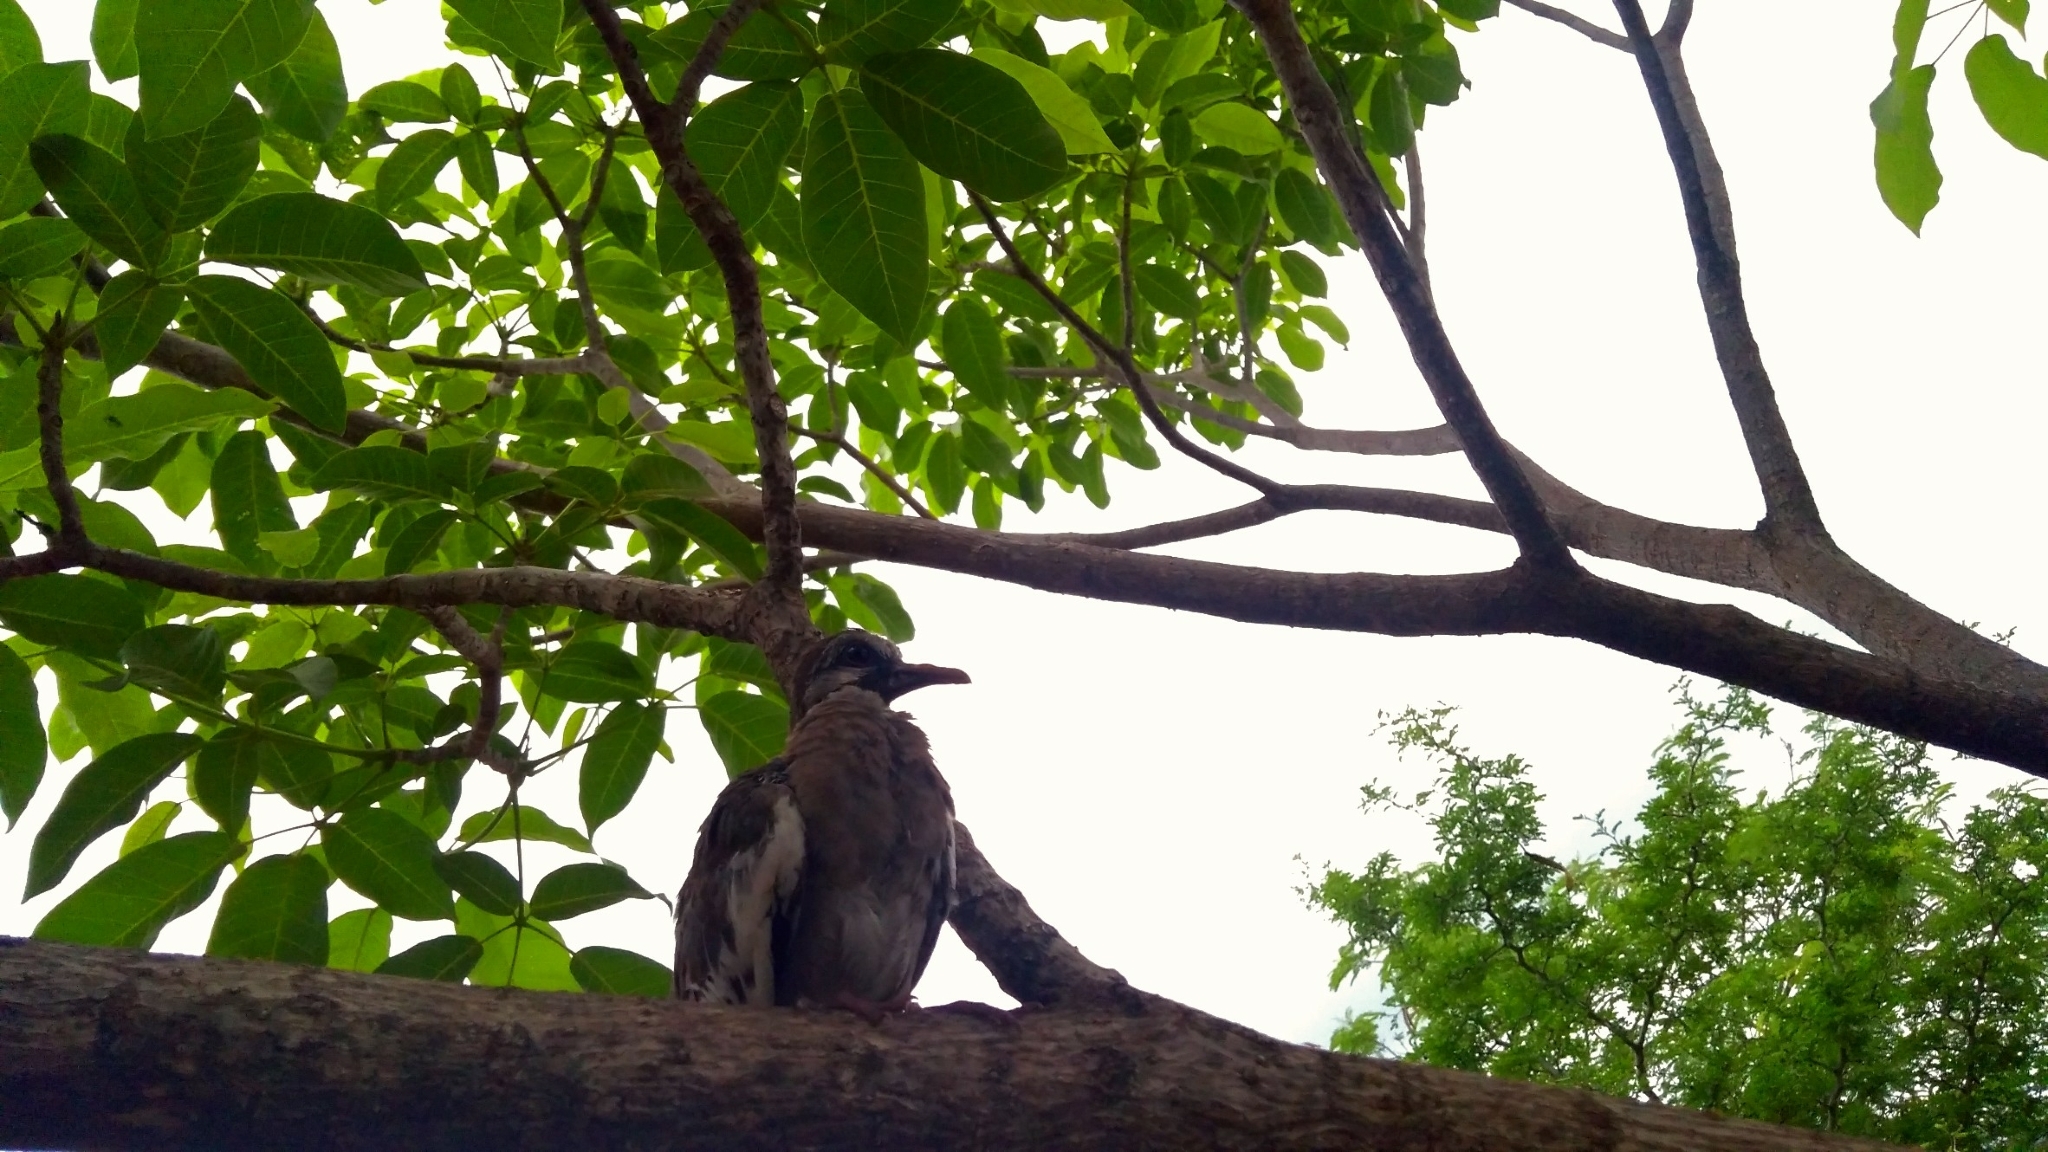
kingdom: Animalia
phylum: Chordata
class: Aves
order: Columbiformes
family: Columbidae
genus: Zenaida
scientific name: Zenaida asiatica
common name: White-winged dove
